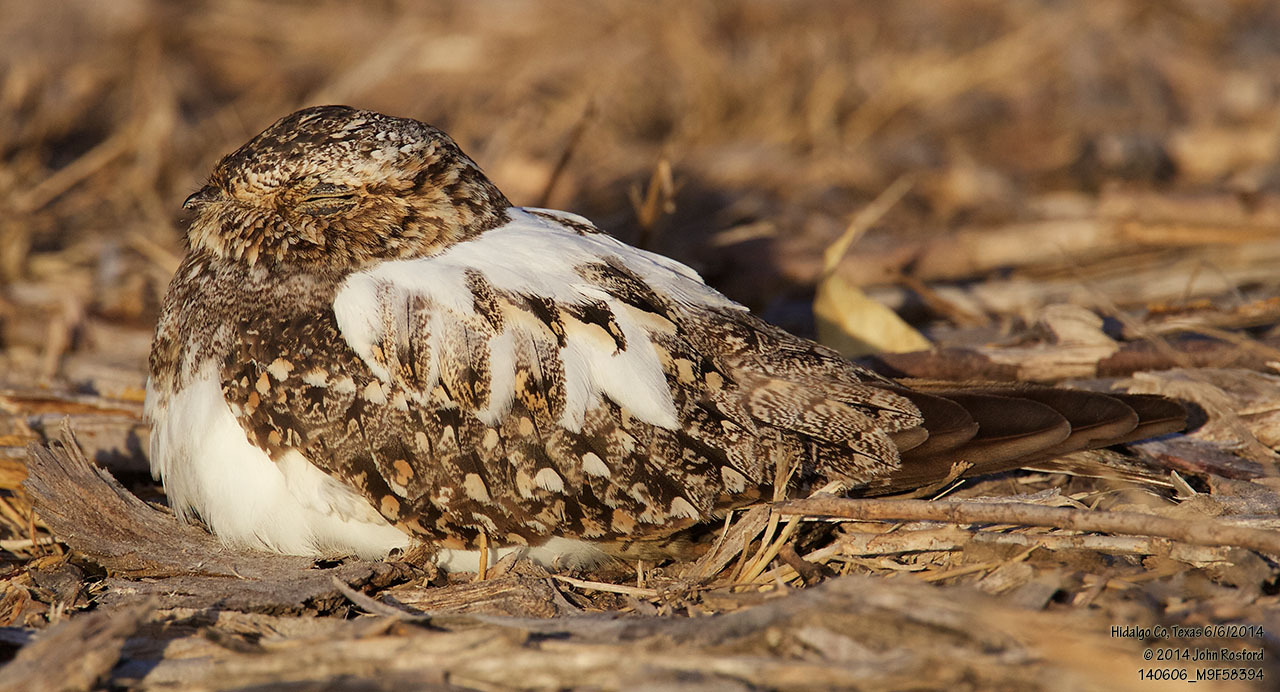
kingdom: Animalia
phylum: Chordata
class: Aves
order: Caprimulgiformes
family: Caprimulgidae
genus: Chordeiles
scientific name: Chordeiles acutipennis
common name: Lesser nighthawk
